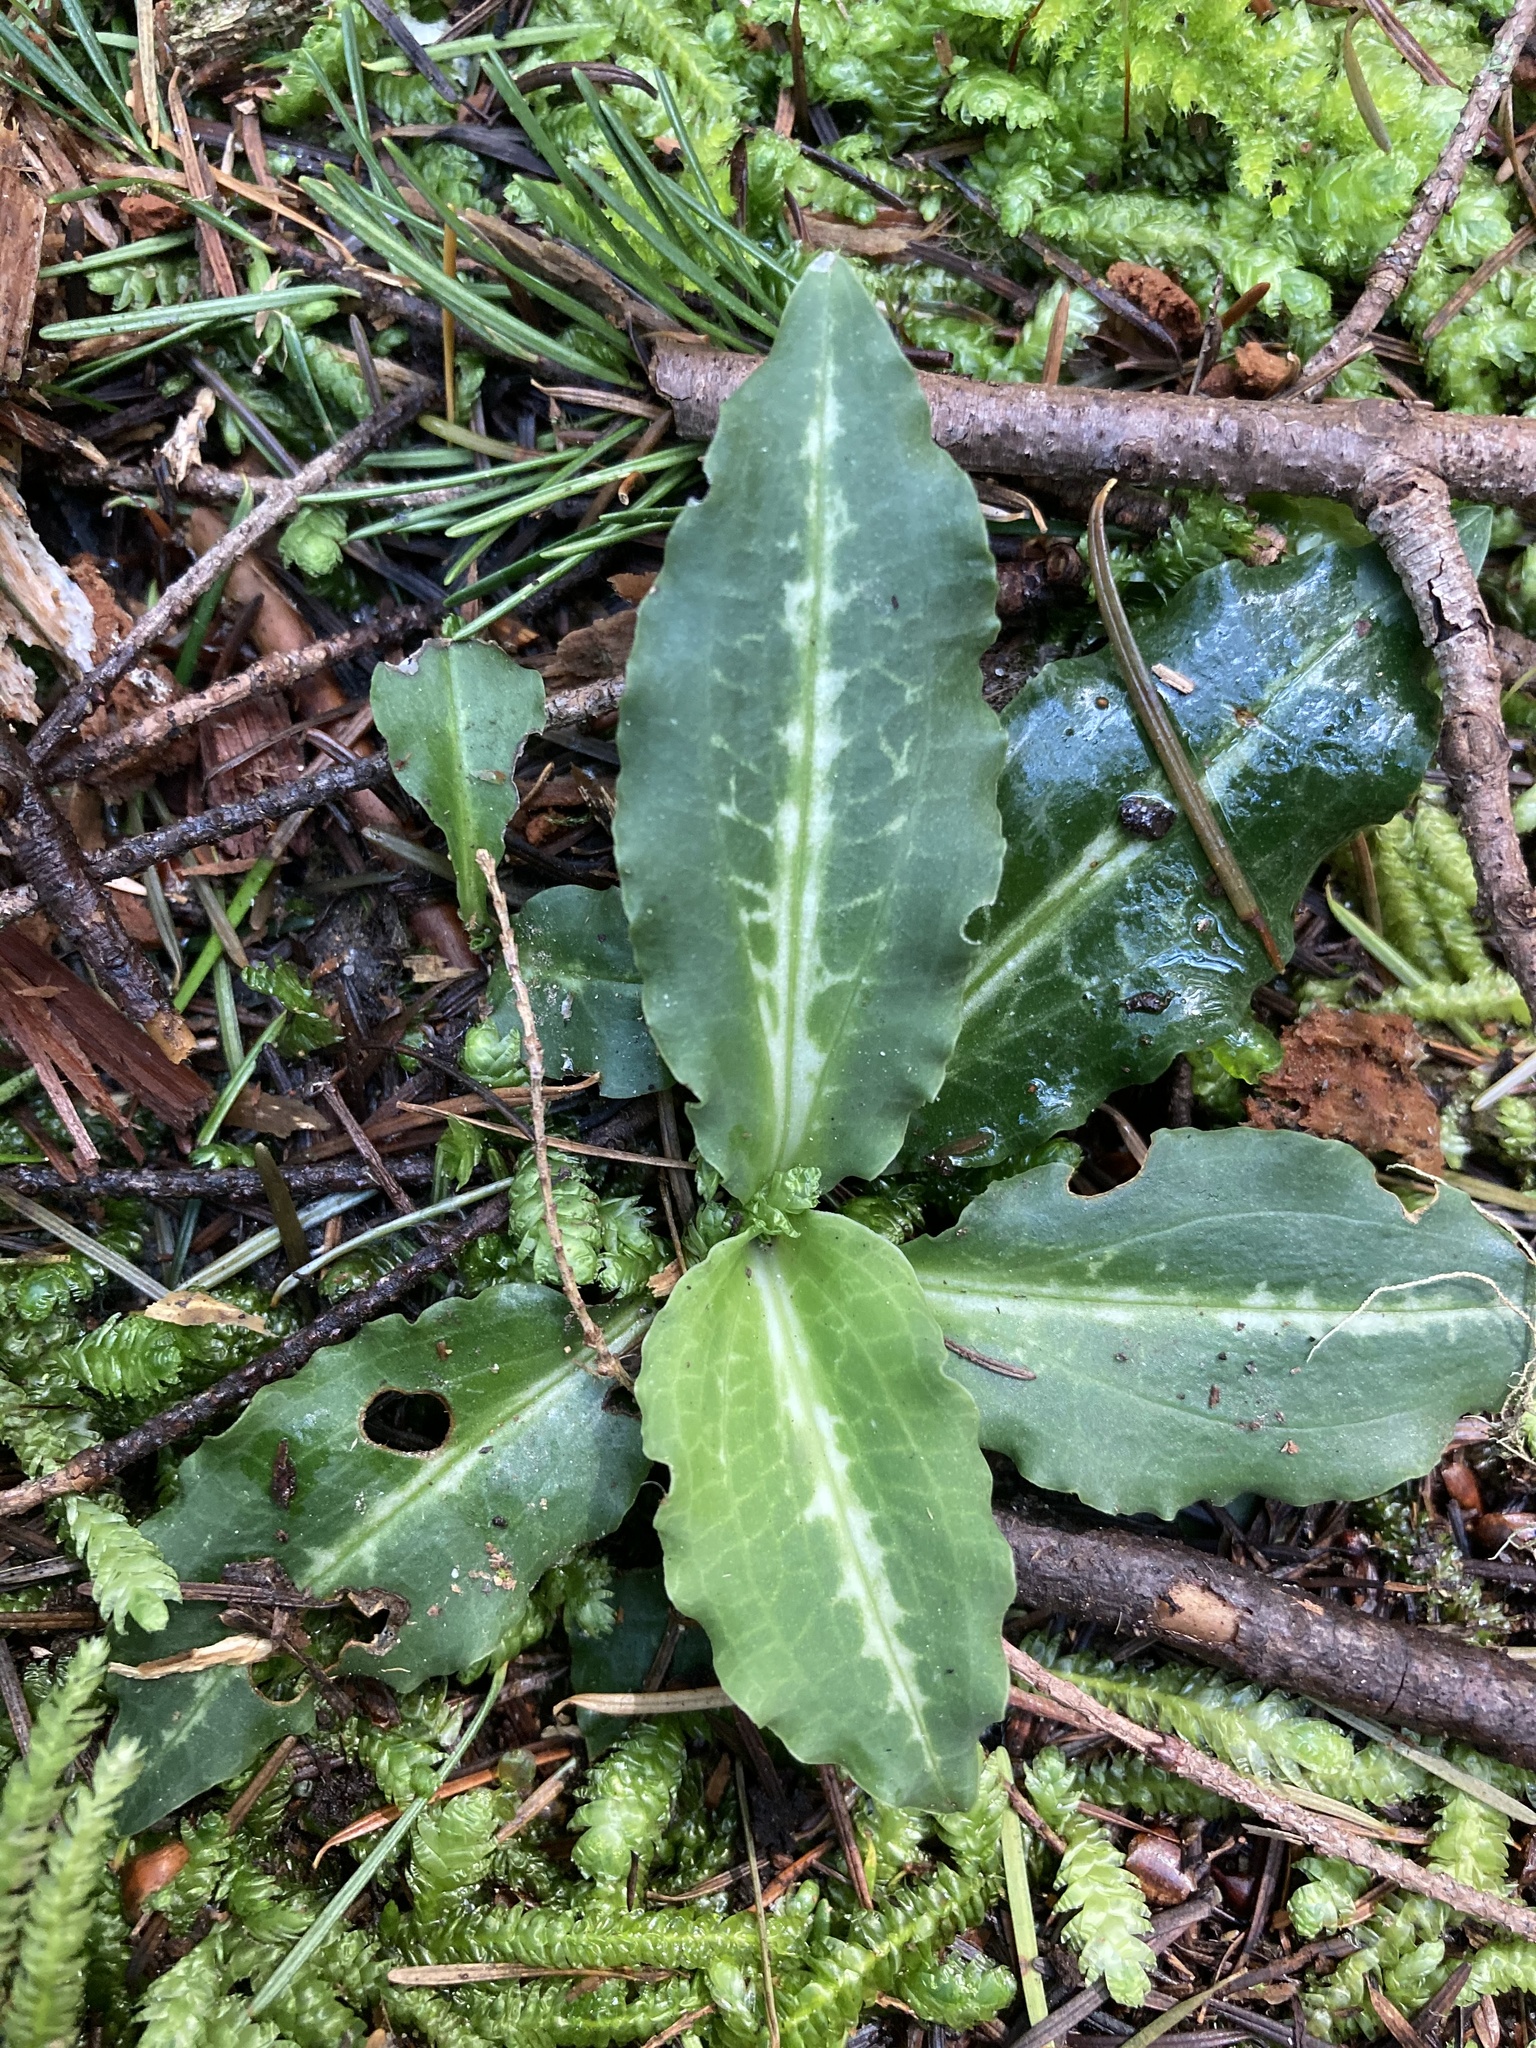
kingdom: Plantae
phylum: Tracheophyta
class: Liliopsida
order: Asparagales
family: Orchidaceae
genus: Goodyera
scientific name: Goodyera oblongifolia
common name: Giant rattlesnake-plantain
